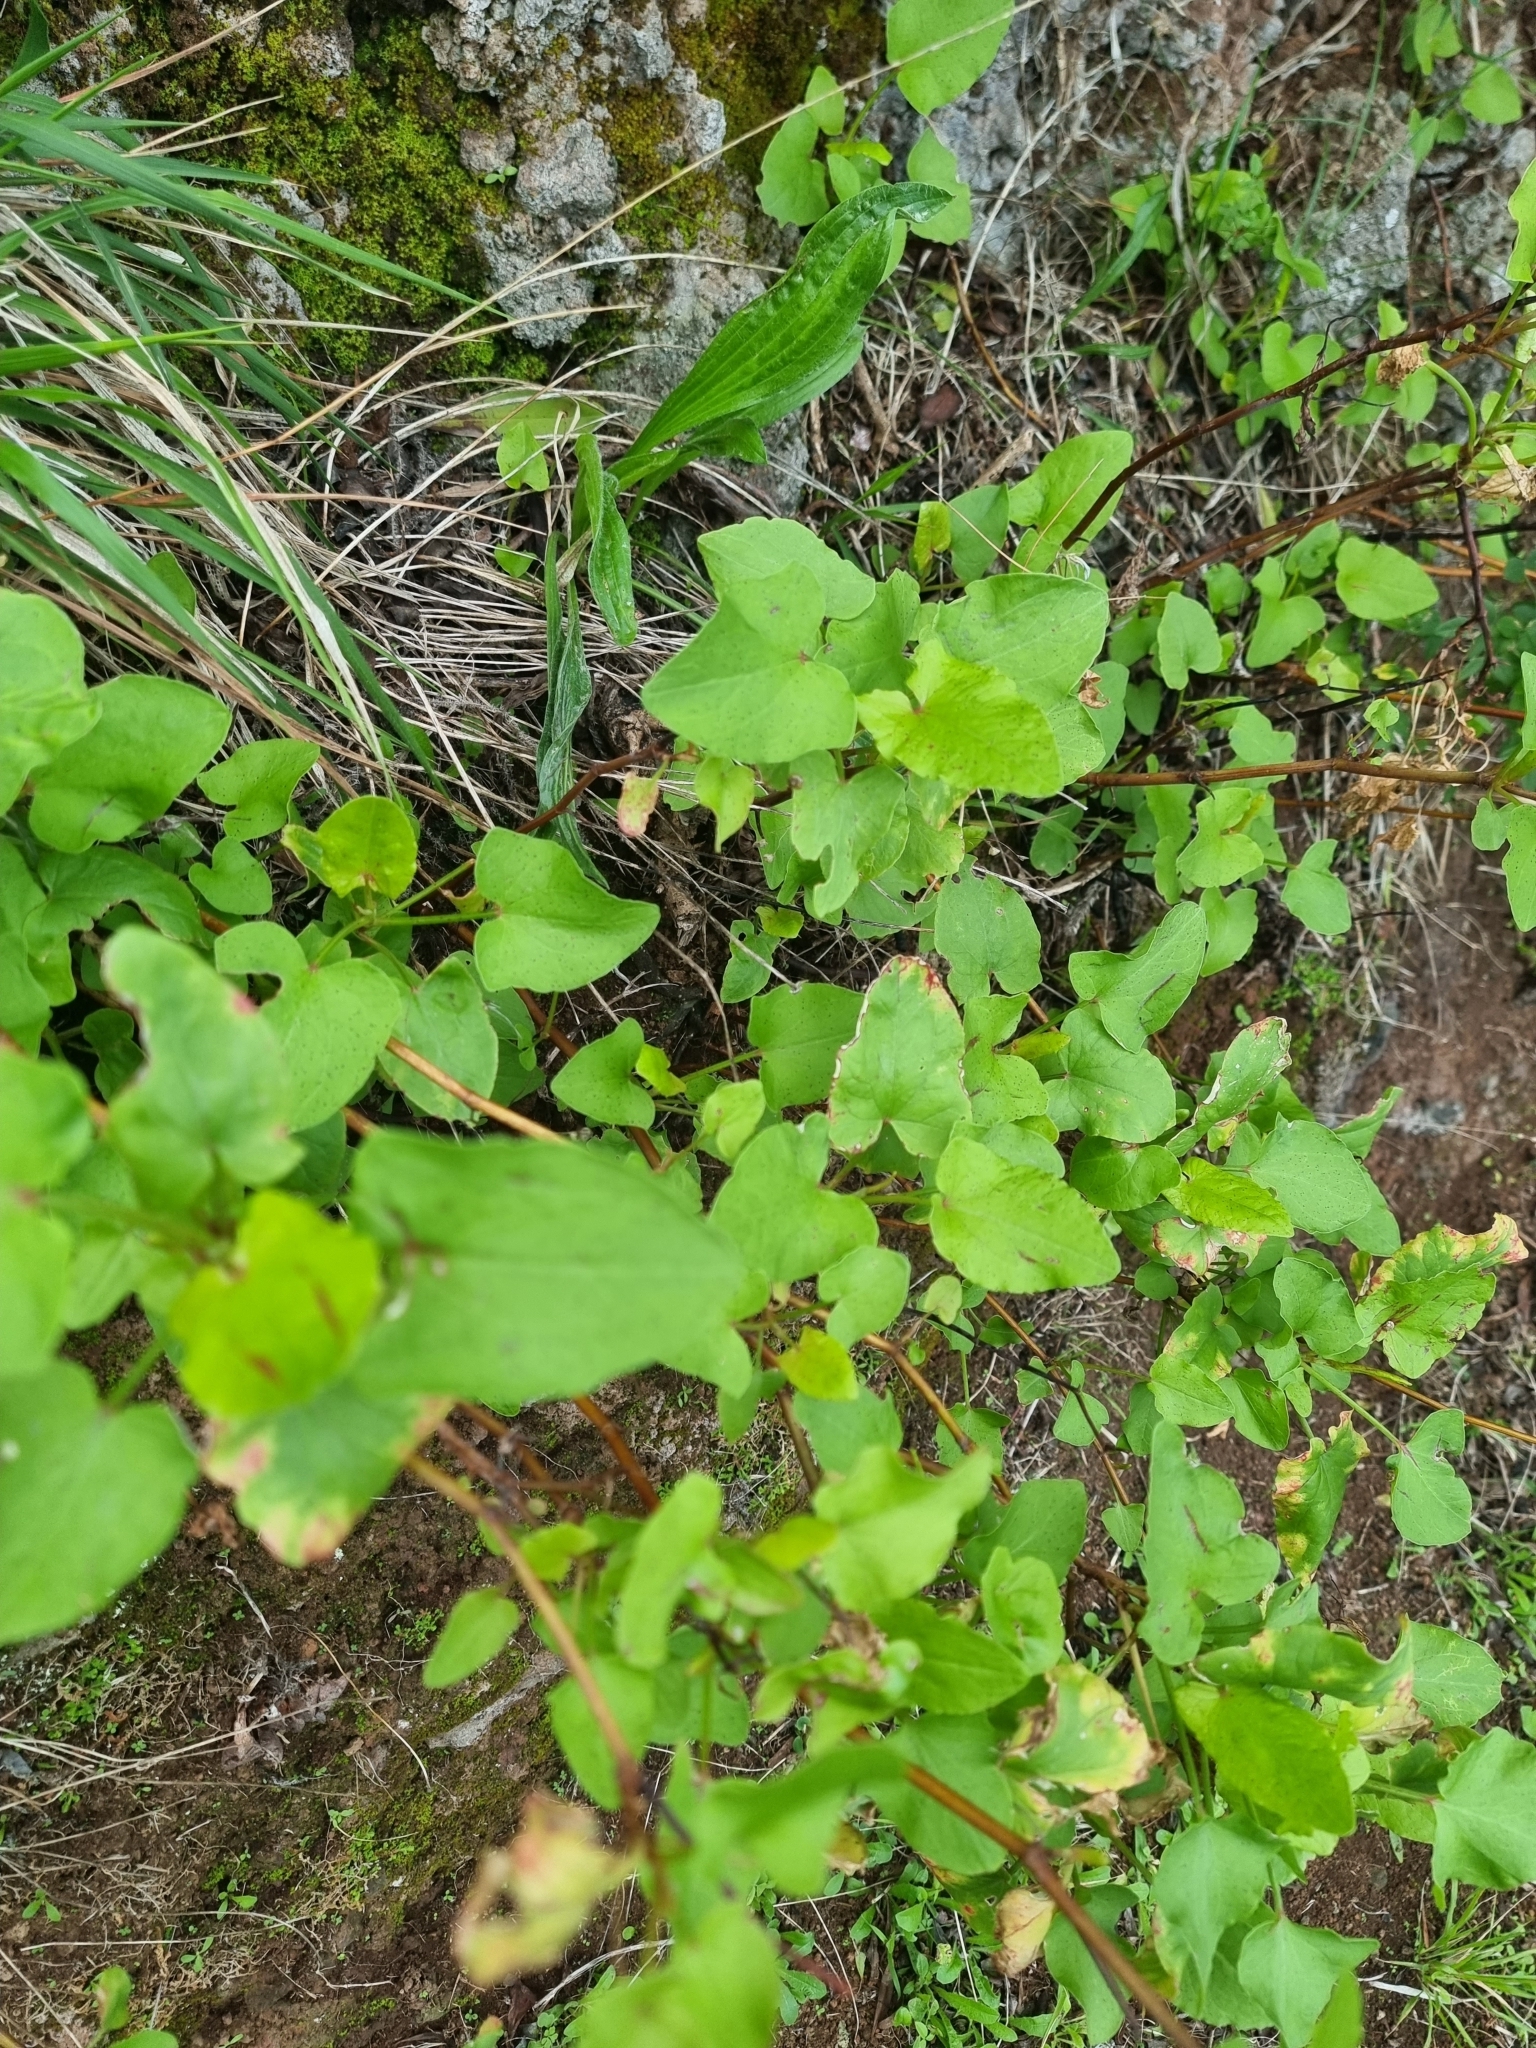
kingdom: Plantae
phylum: Tracheophyta
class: Magnoliopsida
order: Caryophyllales
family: Polygonaceae
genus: Rumex
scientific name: Rumex maderensis
